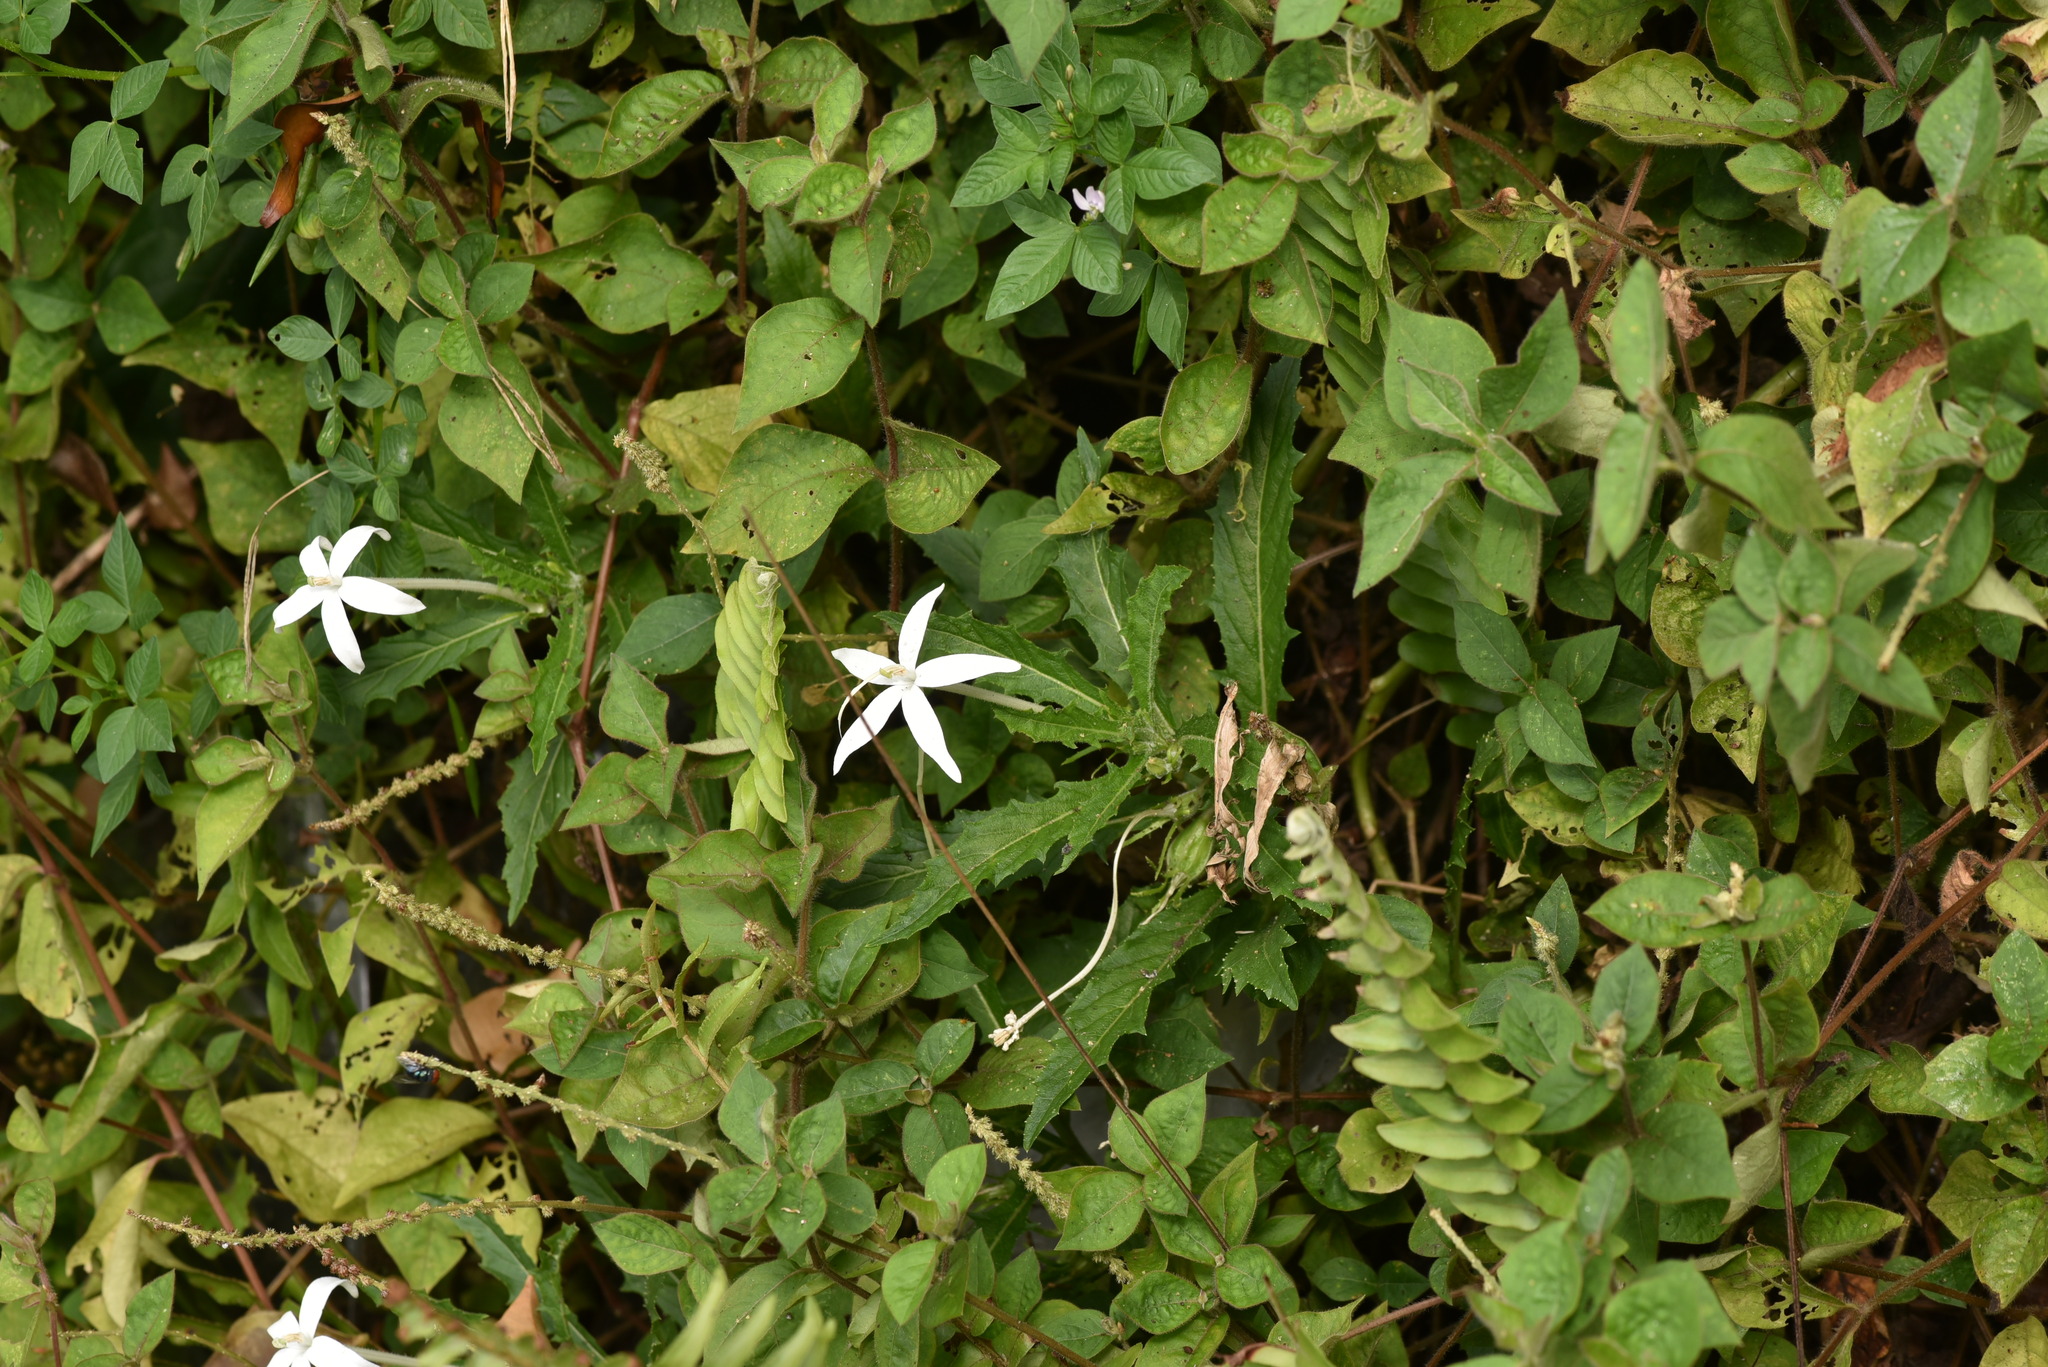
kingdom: Plantae
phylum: Tracheophyta
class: Magnoliopsida
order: Asterales
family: Campanulaceae
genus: Hippobroma
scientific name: Hippobroma longiflora
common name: Madamfate
